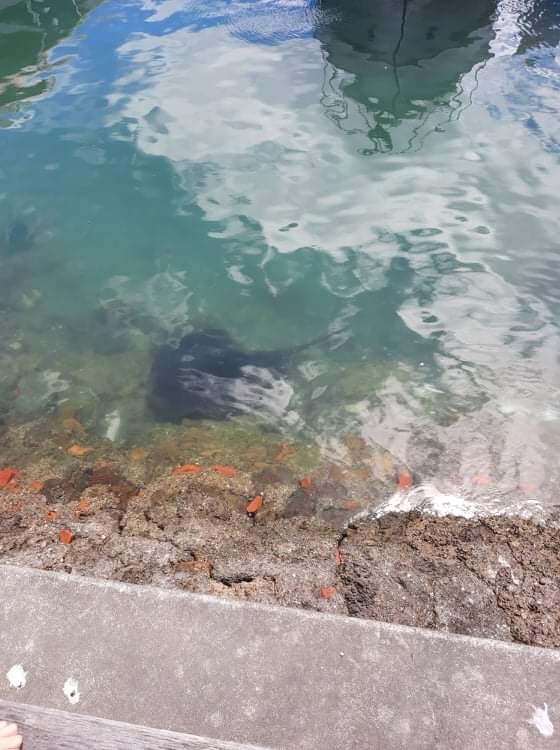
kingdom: Animalia
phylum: Chordata
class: Elasmobranchii
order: Myliobatiformes
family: Dasyatidae
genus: Bathytoshia
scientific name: Bathytoshia brevicaudata
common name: Short-tail stingray
